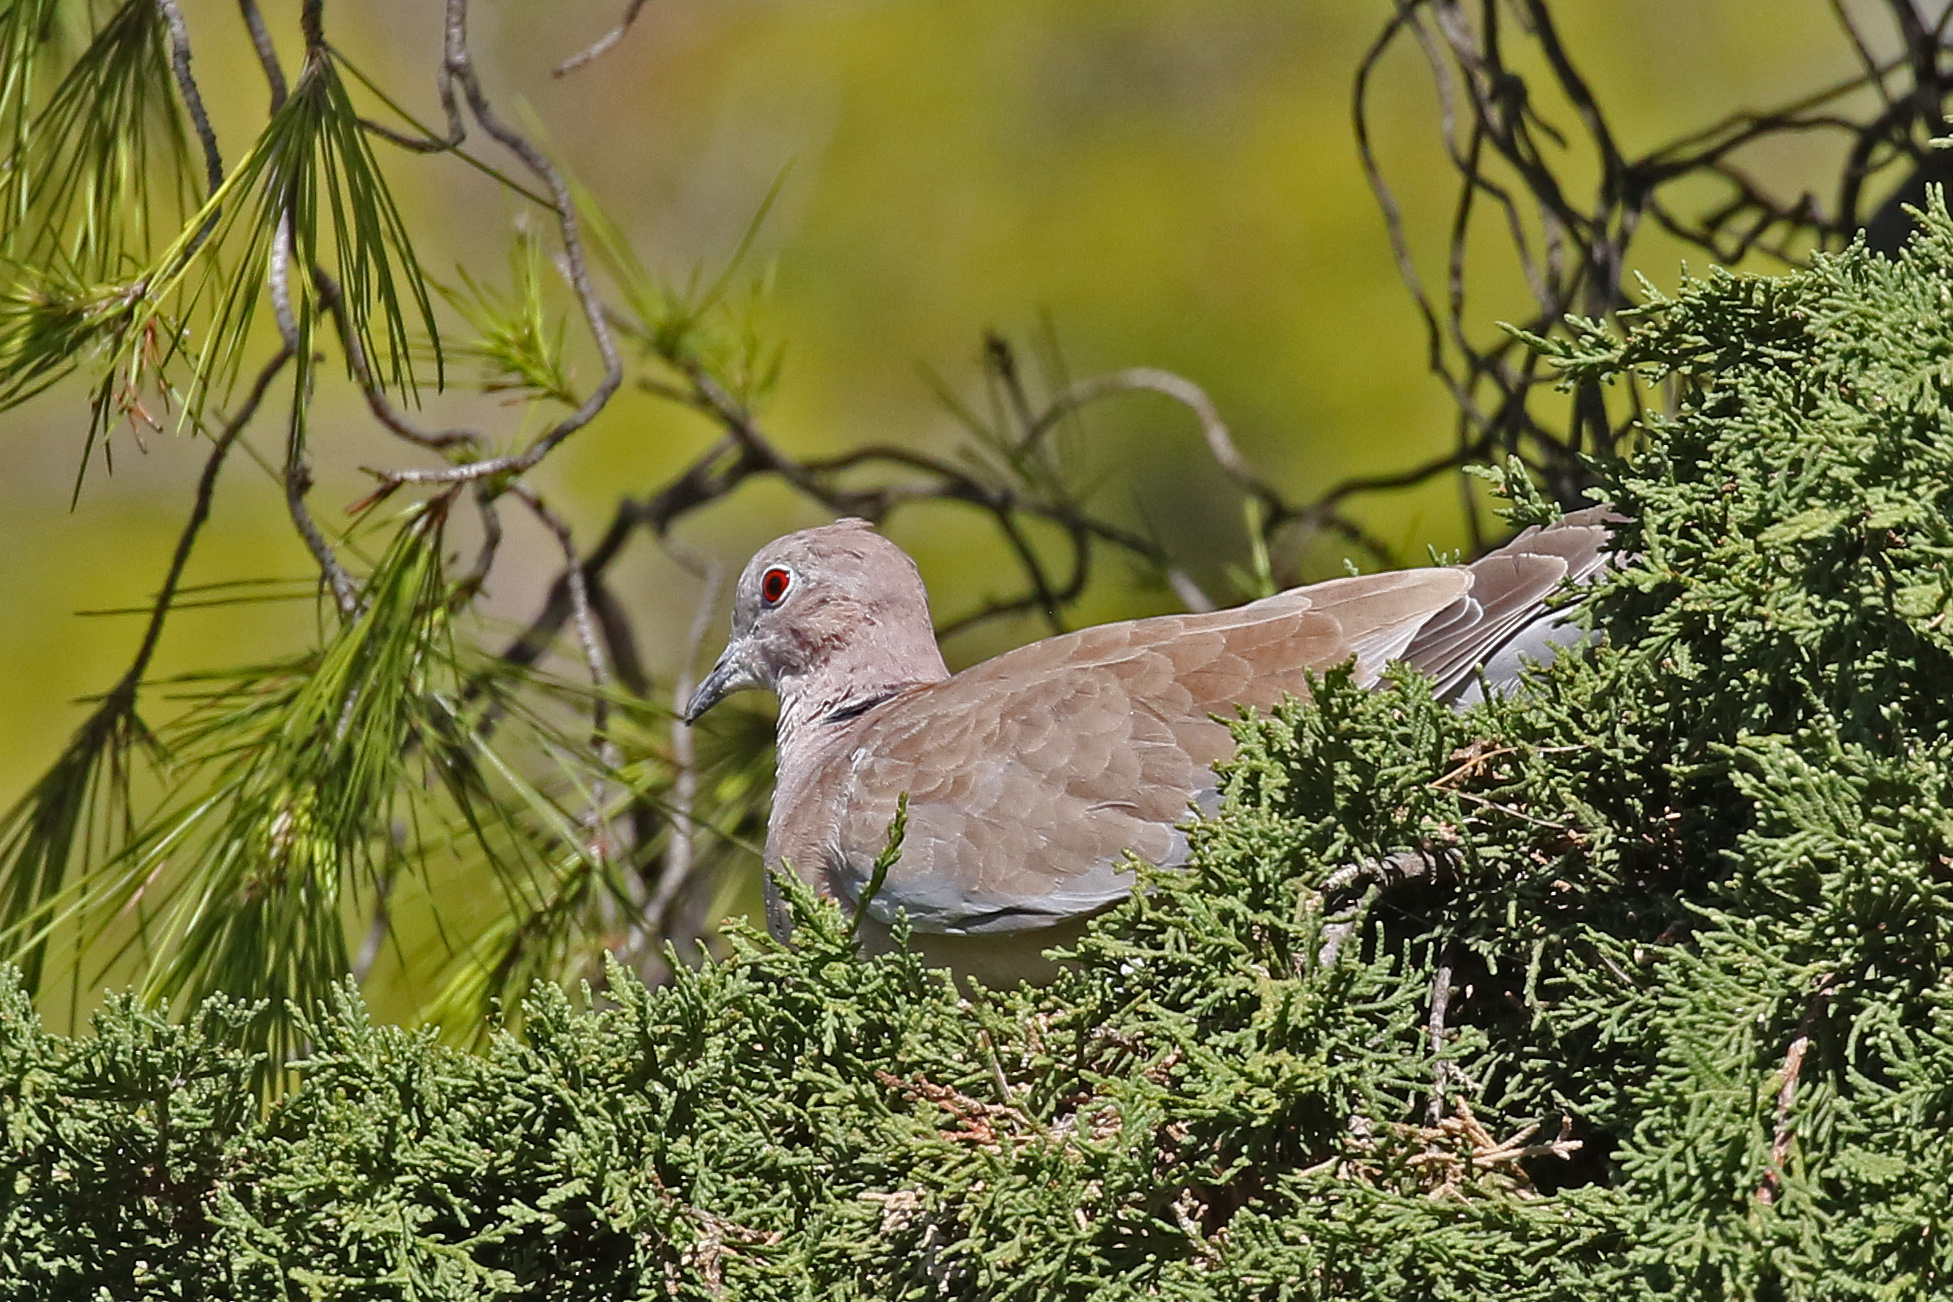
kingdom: Animalia
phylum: Chordata
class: Aves
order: Columbiformes
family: Columbidae
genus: Streptopelia
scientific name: Streptopelia decaocto
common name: Eurasian collared dove
